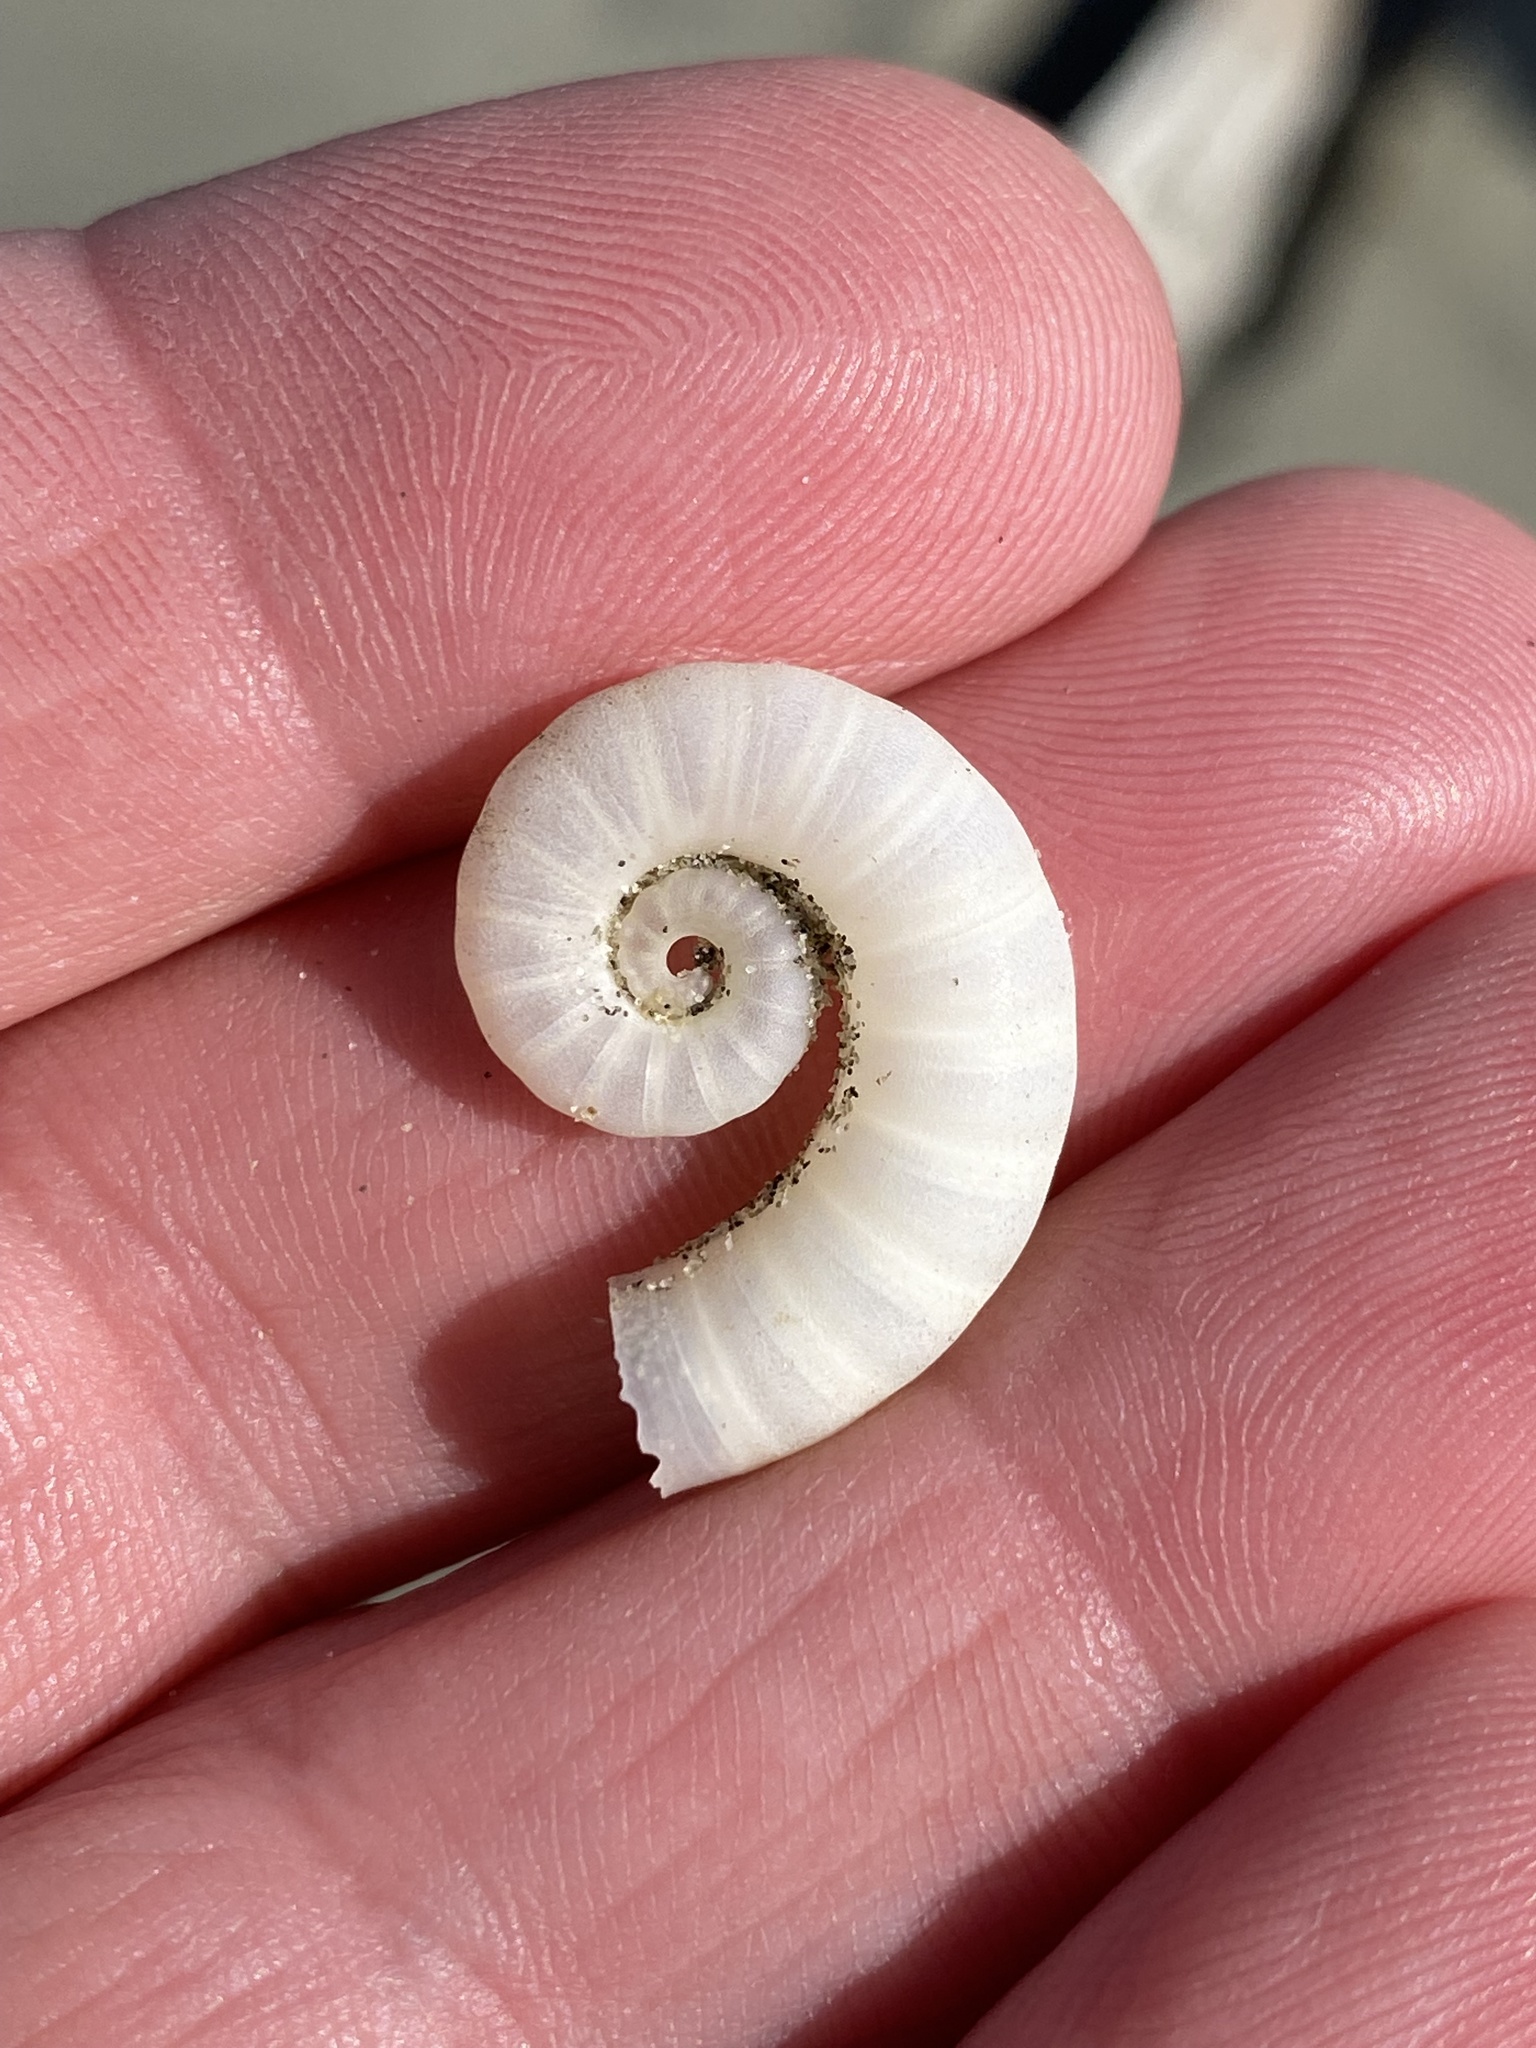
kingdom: Animalia
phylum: Mollusca
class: Cephalopoda
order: Spirulida
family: Spirulidae
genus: Spirula
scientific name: Spirula spirula
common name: Ram's horn squid
